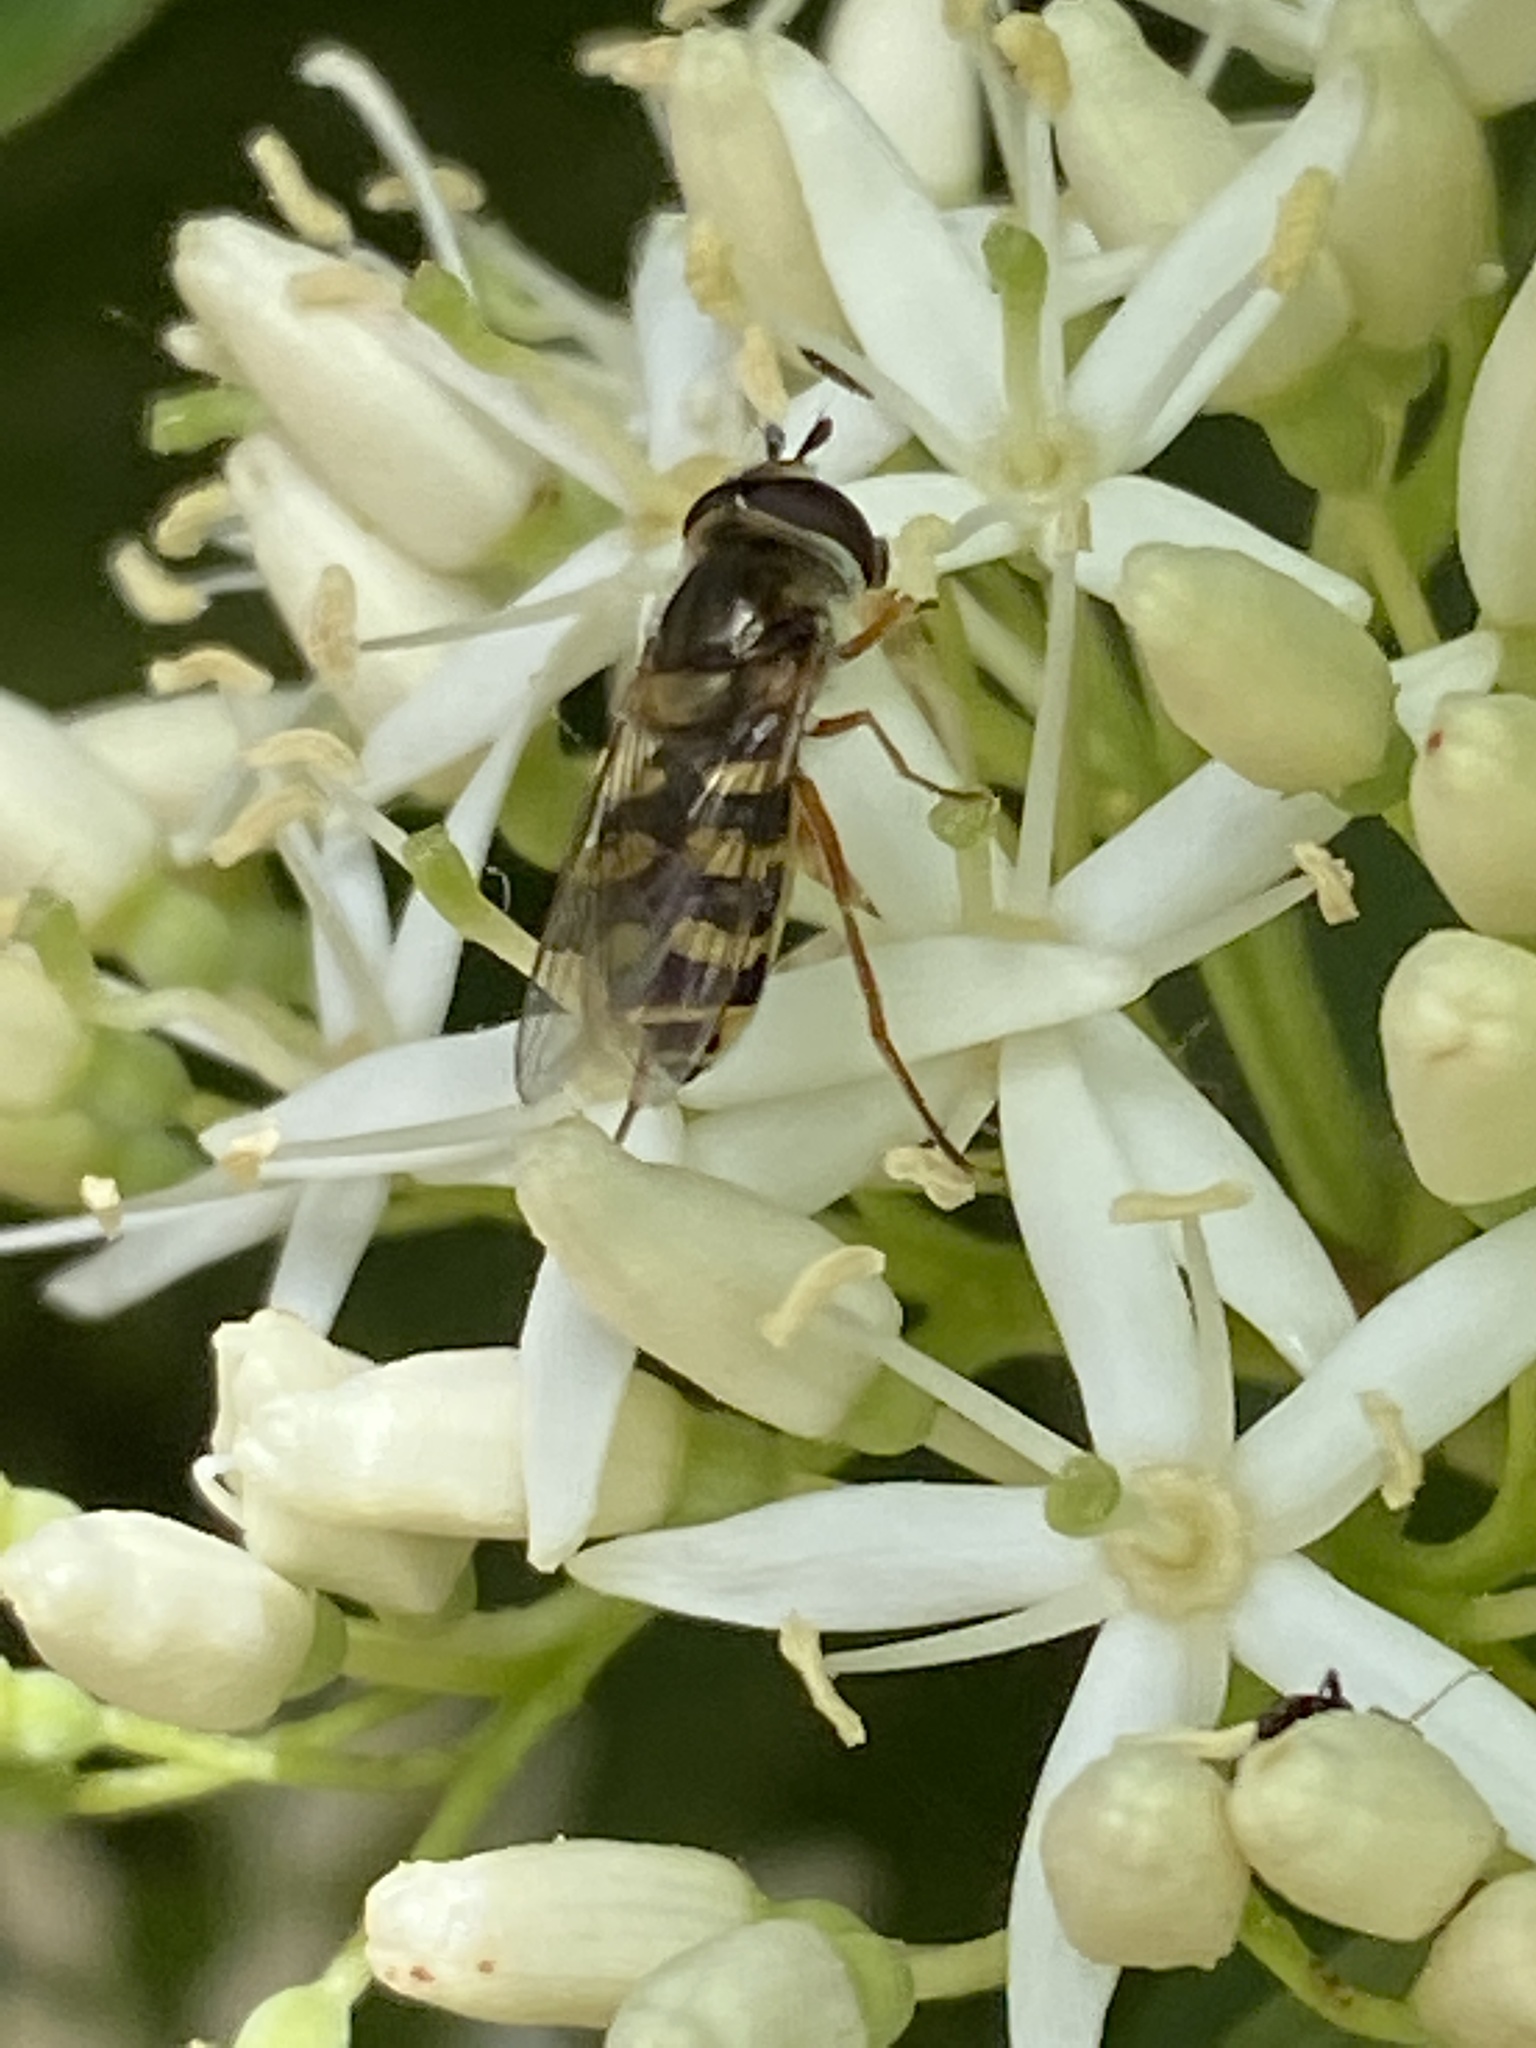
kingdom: Animalia
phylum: Arthropoda
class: Insecta
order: Diptera
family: Syrphidae
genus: Eupeodes
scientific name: Eupeodes corollae
